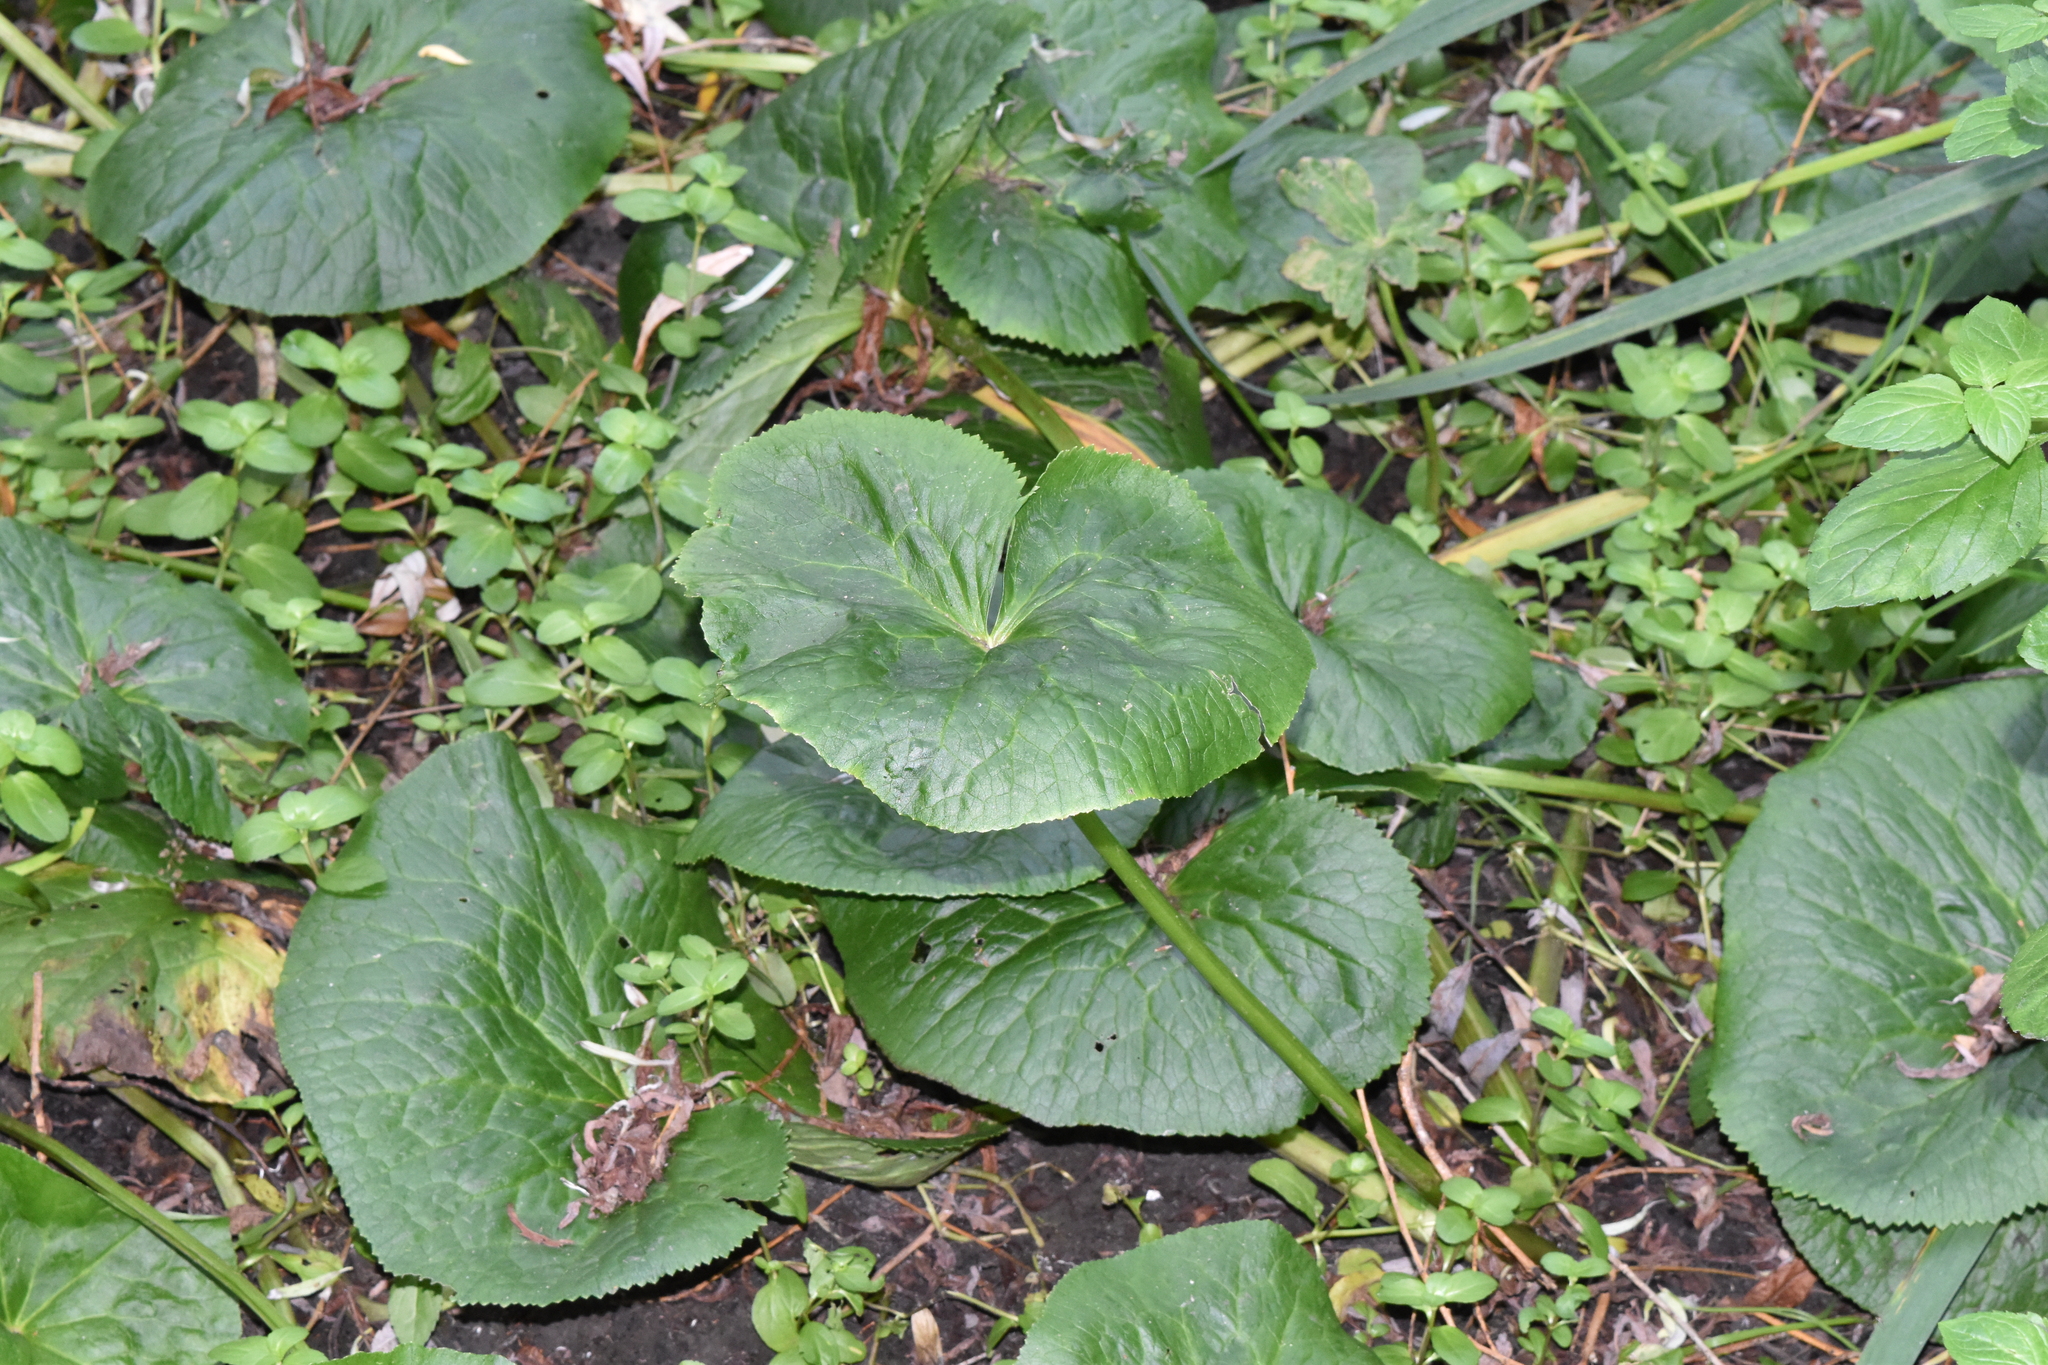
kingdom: Plantae
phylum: Tracheophyta
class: Magnoliopsida
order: Ranunculales
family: Ranunculaceae
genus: Caltha
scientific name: Caltha palustris
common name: Marsh marigold
